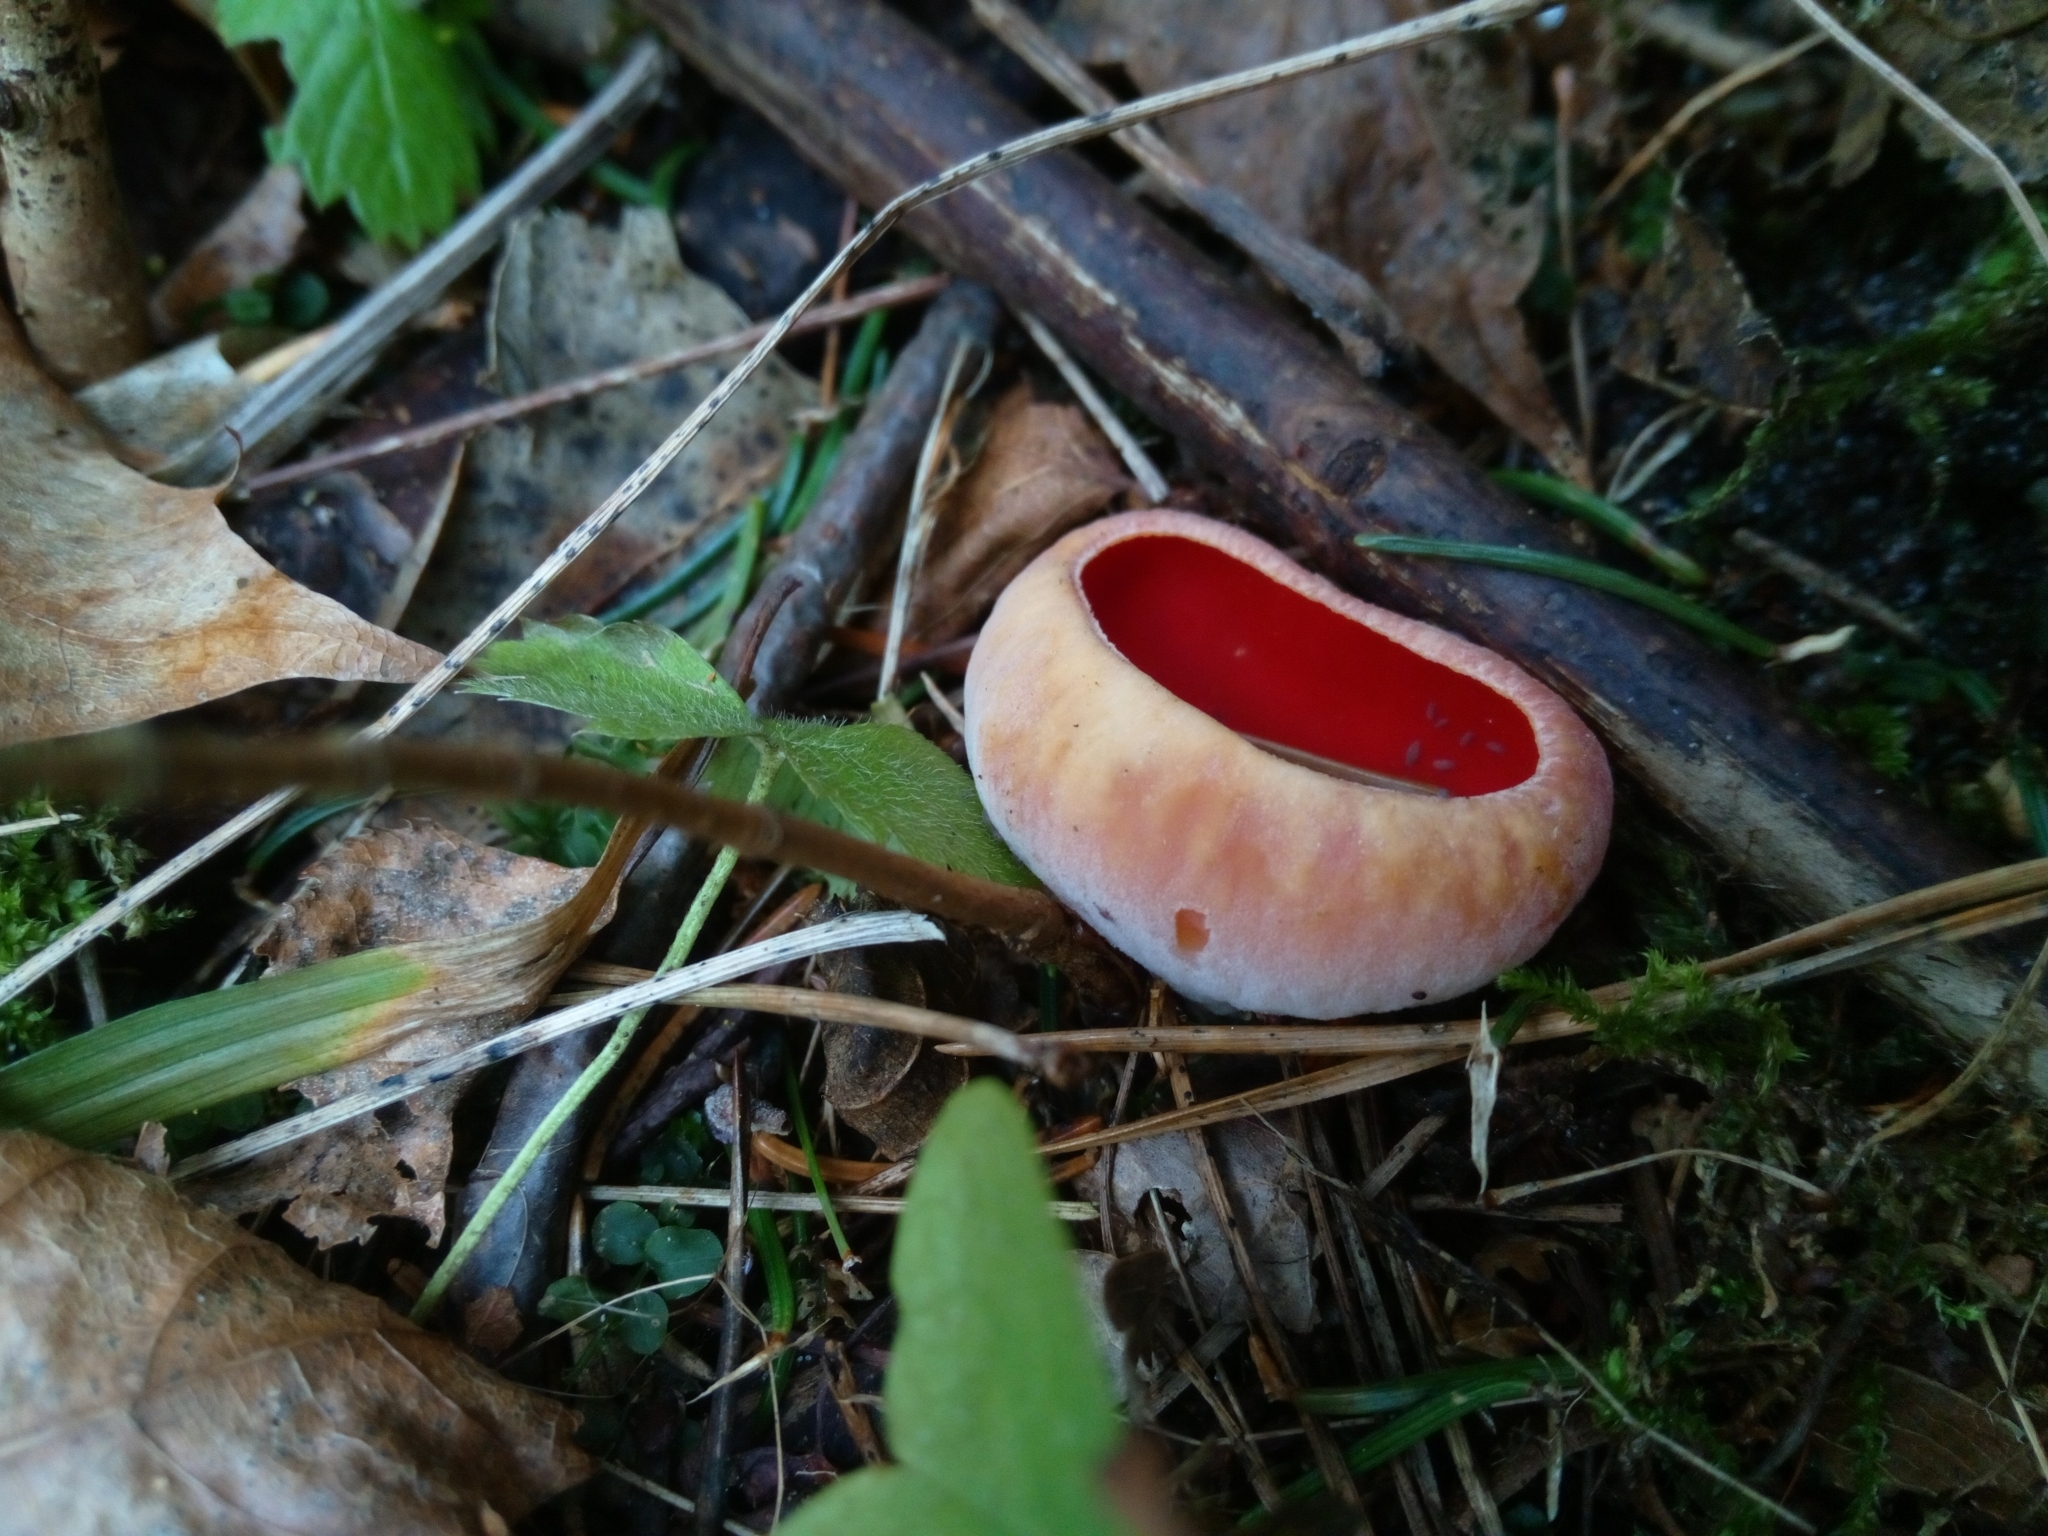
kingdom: Fungi
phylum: Ascomycota
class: Pezizomycetes
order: Pezizales
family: Sarcoscyphaceae
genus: Sarcoscypha
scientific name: Sarcoscypha
